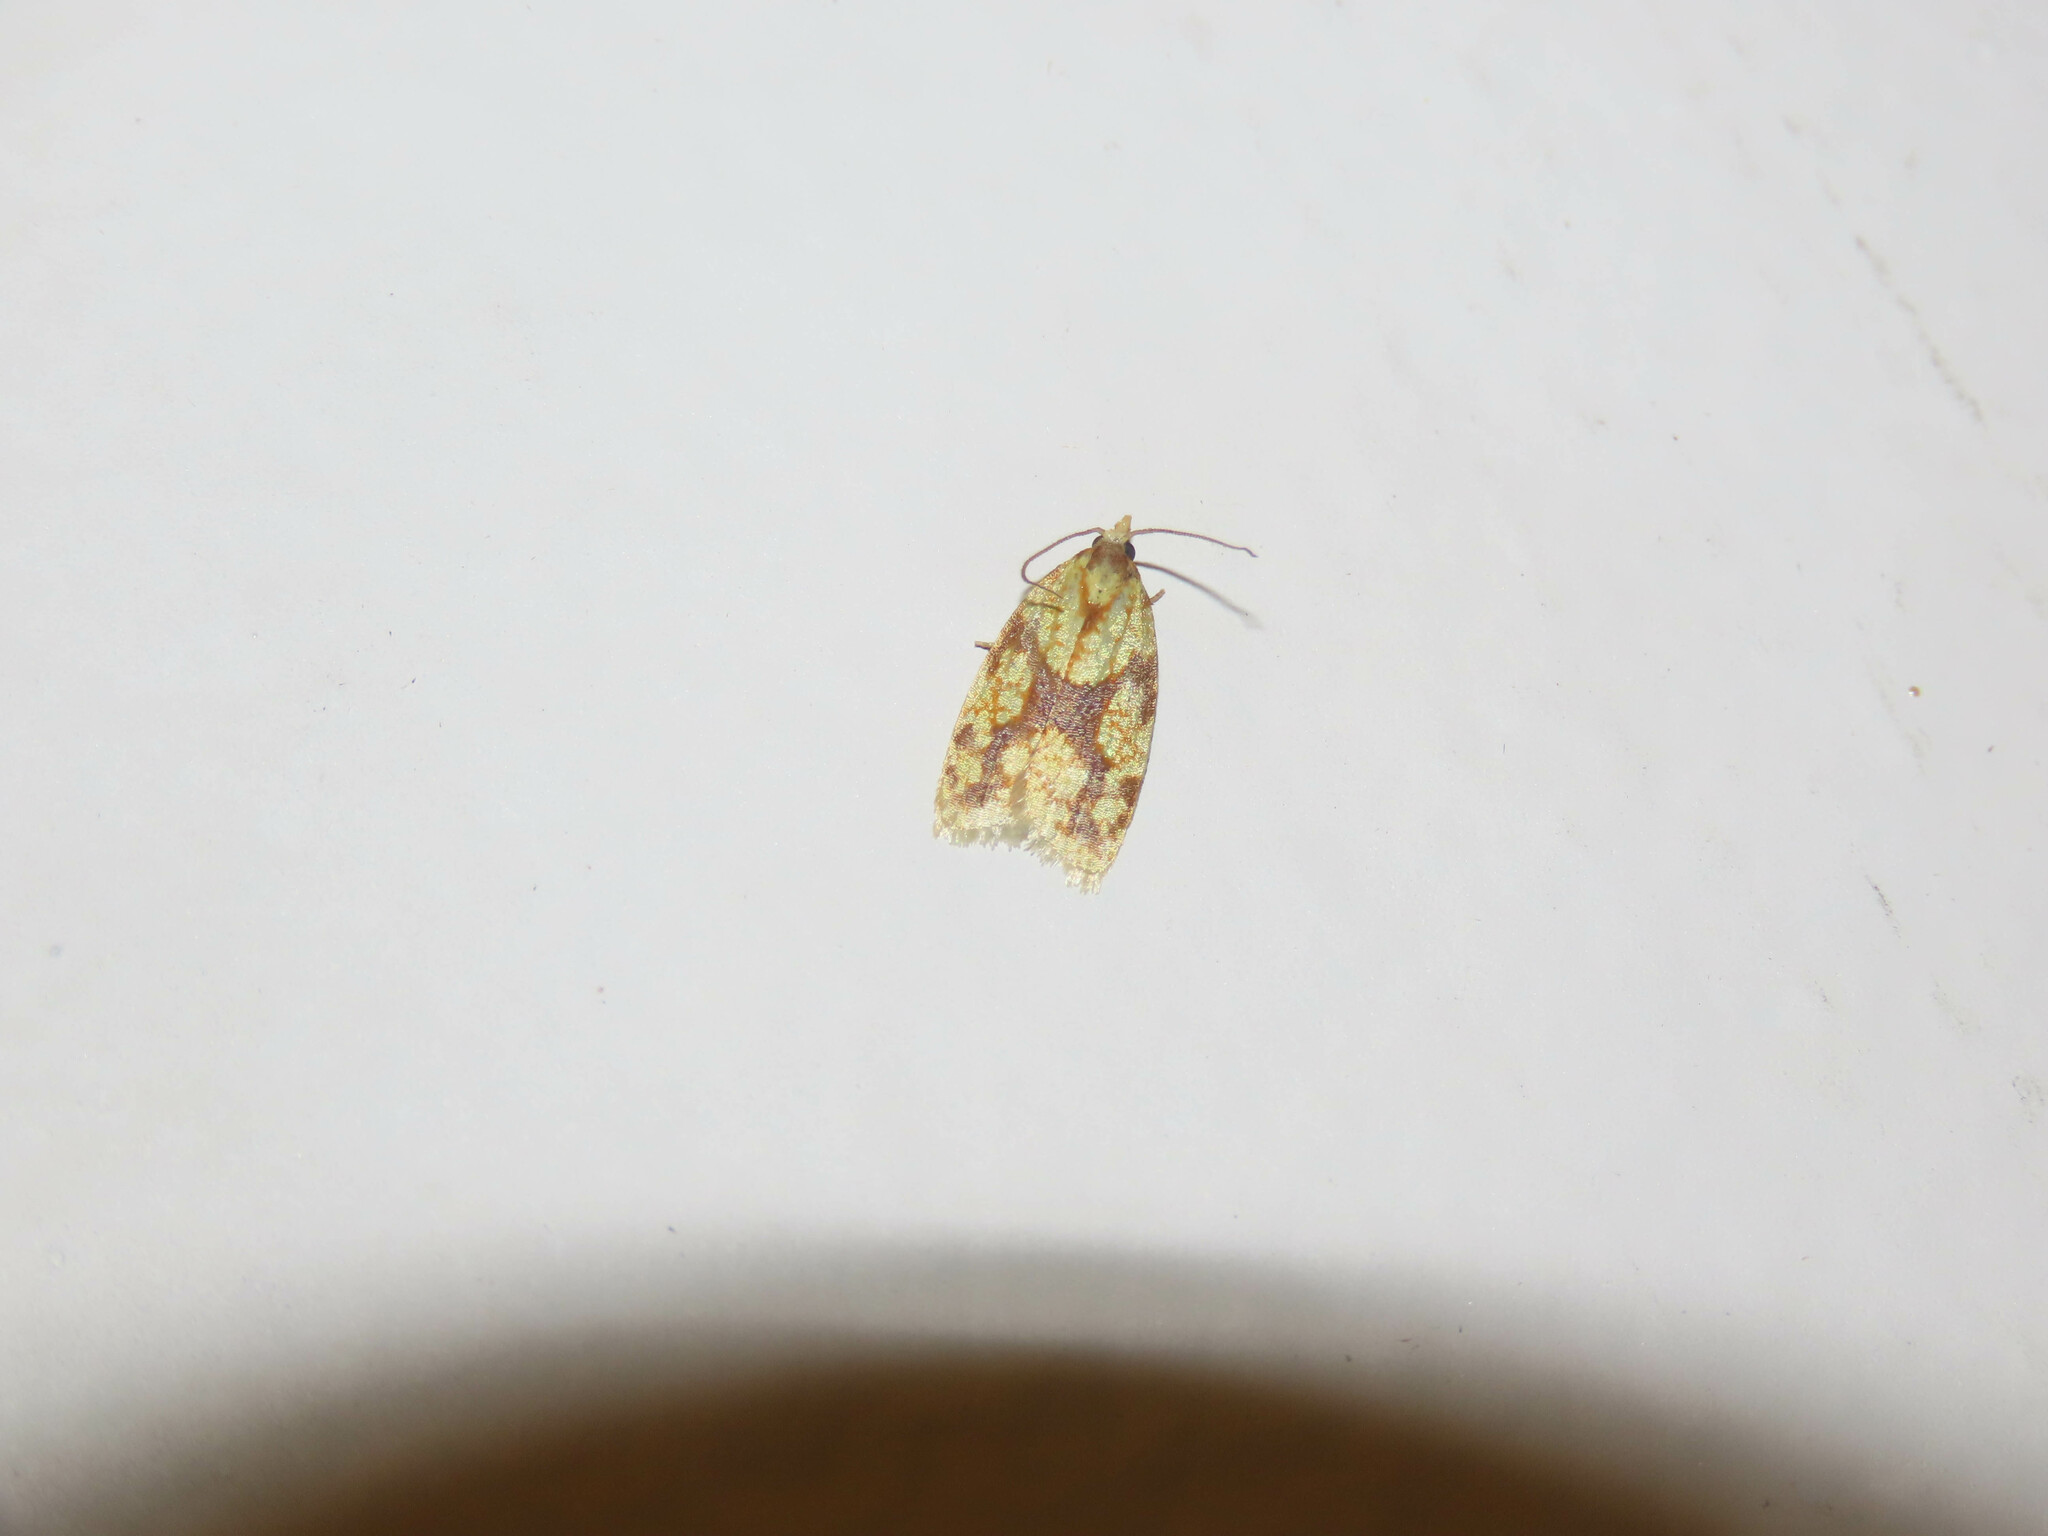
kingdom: Animalia
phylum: Arthropoda
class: Insecta
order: Lepidoptera
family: Tortricidae
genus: Sparganothis
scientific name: Sparganothis sulfureana
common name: Sparganothis fruitworm moth
